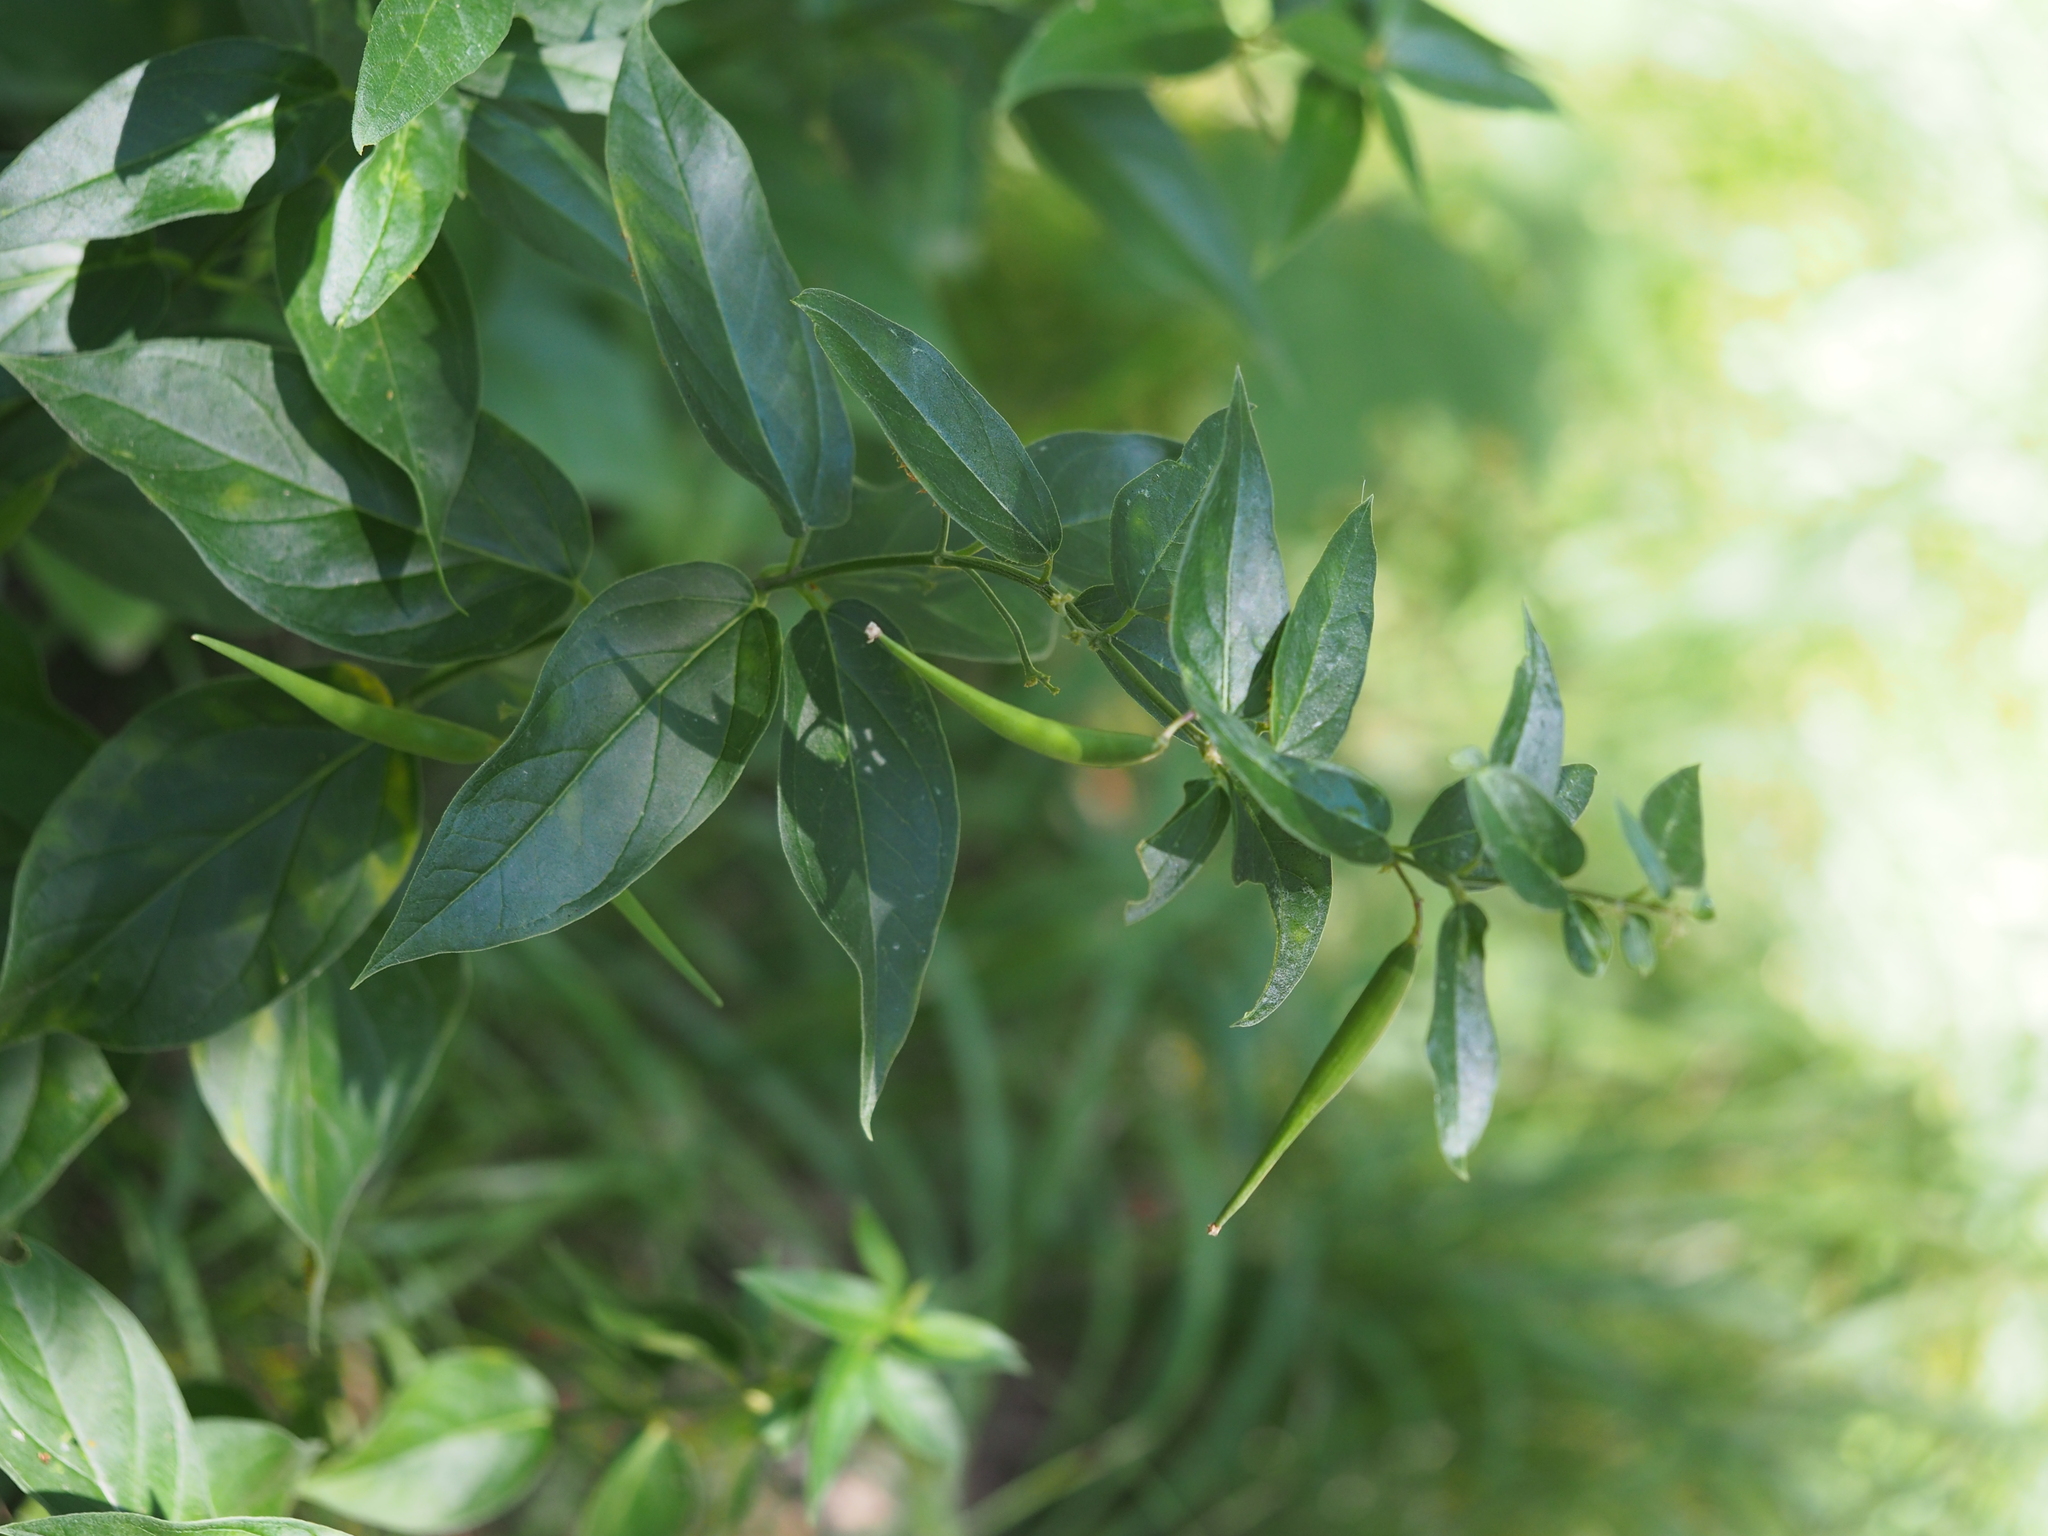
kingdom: Plantae
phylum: Tracheophyta
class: Magnoliopsida
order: Gentianales
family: Apocynaceae
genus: Vincetoxicum
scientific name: Vincetoxicum hirundinaria
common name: White swallowwort
